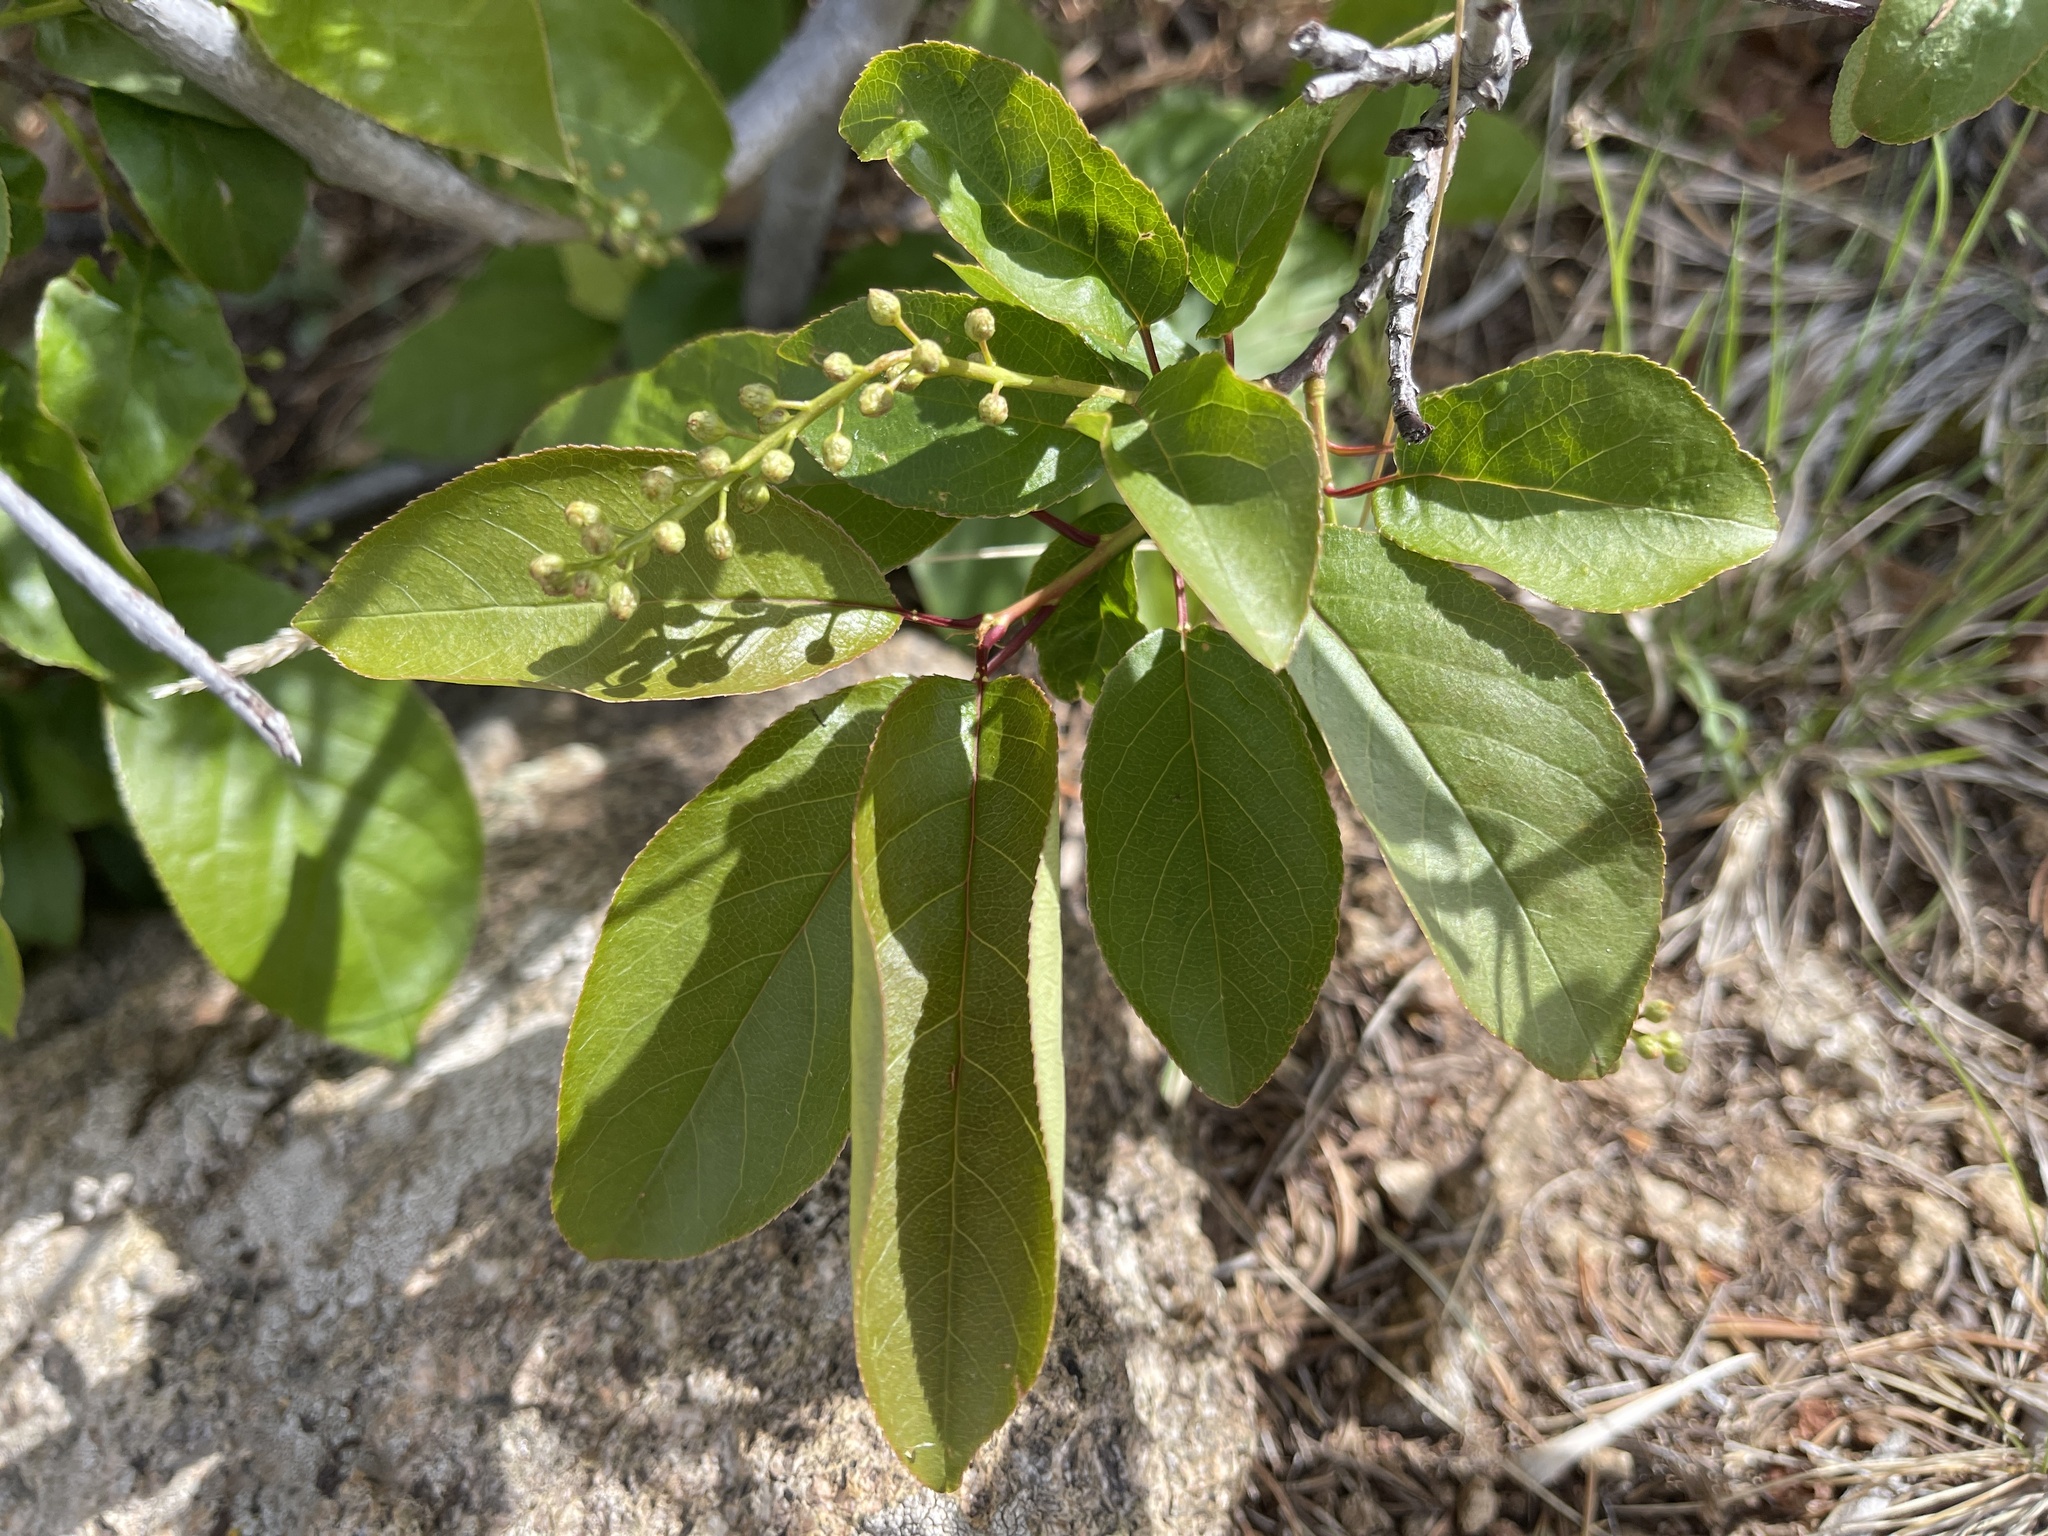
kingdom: Plantae
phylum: Tracheophyta
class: Magnoliopsida
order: Rosales
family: Rosaceae
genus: Prunus
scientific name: Prunus virginiana
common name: Chokecherry
